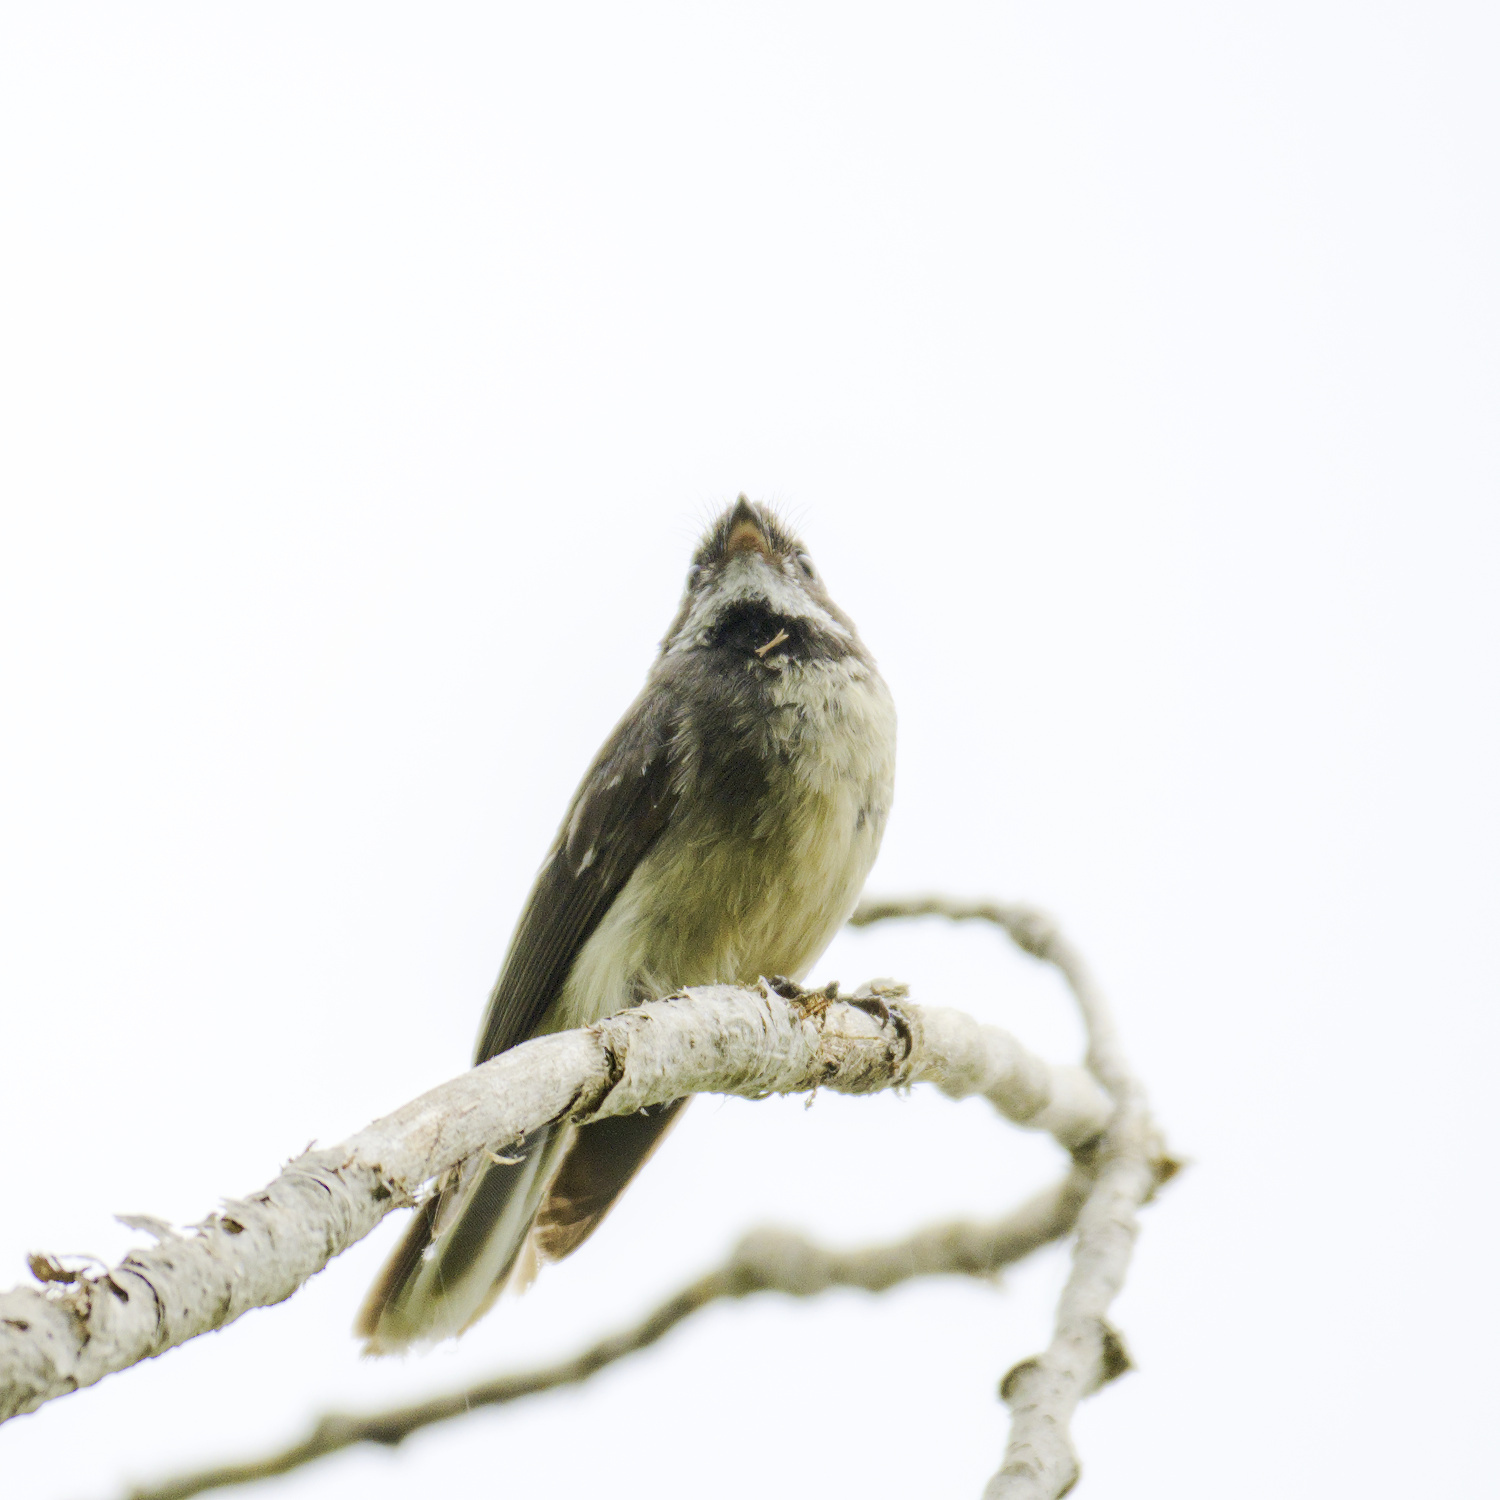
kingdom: Animalia
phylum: Chordata
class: Aves
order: Passeriformes
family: Rhipiduridae
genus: Rhipidura
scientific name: Rhipidura albiscapa
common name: Grey fantail
